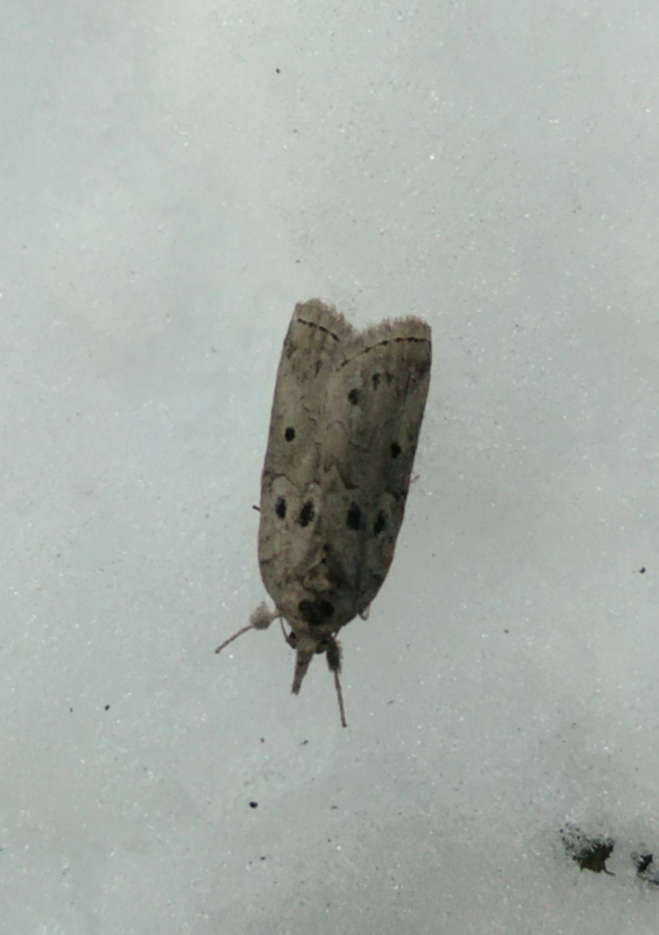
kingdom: Animalia
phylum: Arthropoda
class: Insecta
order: Lepidoptera
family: Nolidae
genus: Nycteola
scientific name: Nycteola revayana
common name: Oak nycteoline
